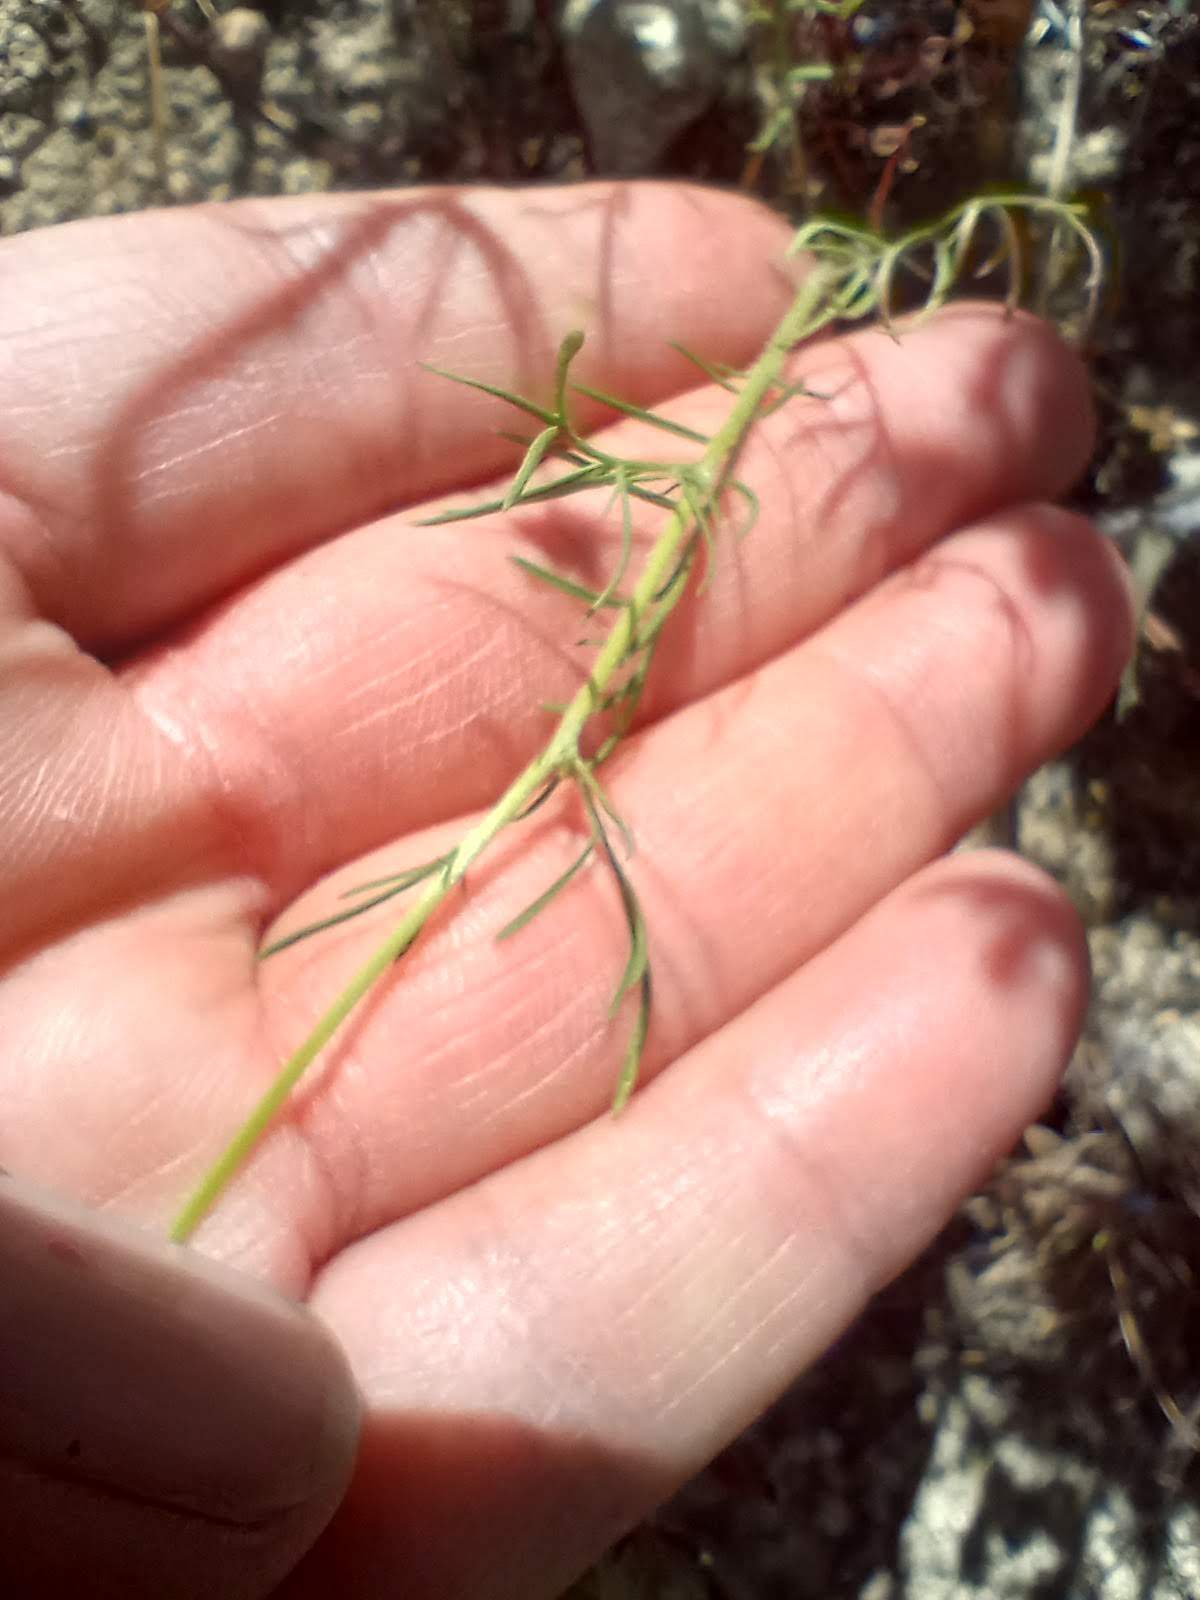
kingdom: Plantae
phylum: Tracheophyta
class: Magnoliopsida
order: Ericales
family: Polemoniaceae
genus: Gilia
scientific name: Gilia capitata
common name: Bluehead gilia
